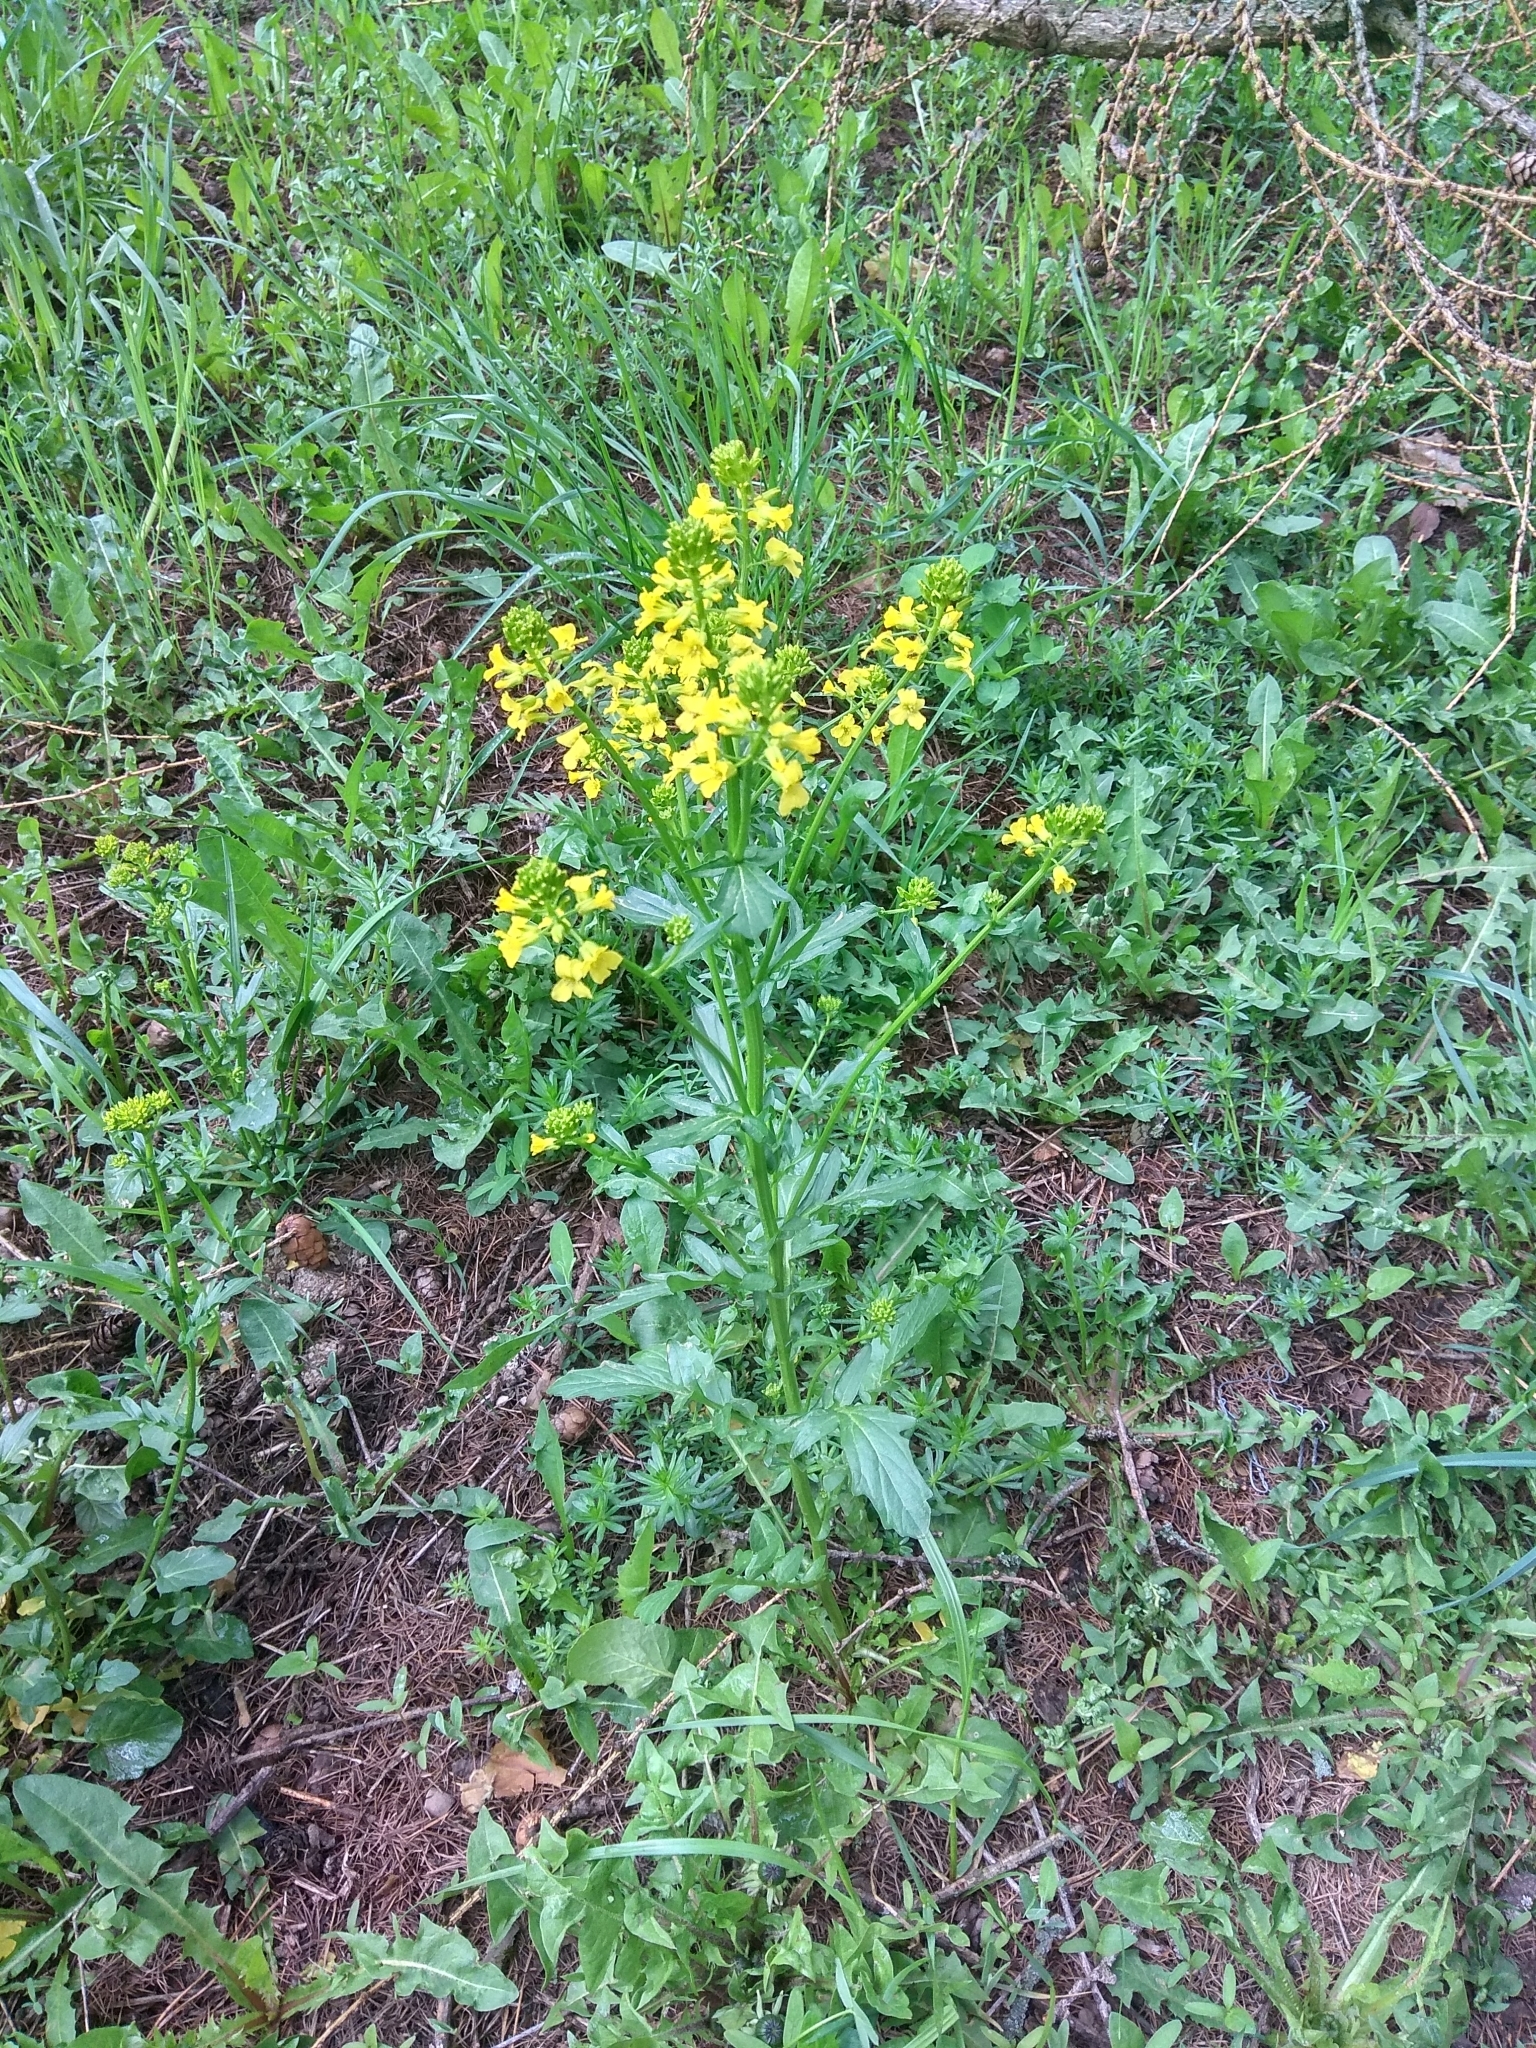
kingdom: Plantae
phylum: Tracheophyta
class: Magnoliopsida
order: Brassicales
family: Brassicaceae
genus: Barbarea
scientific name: Barbarea vulgaris
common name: Cressy-greens
